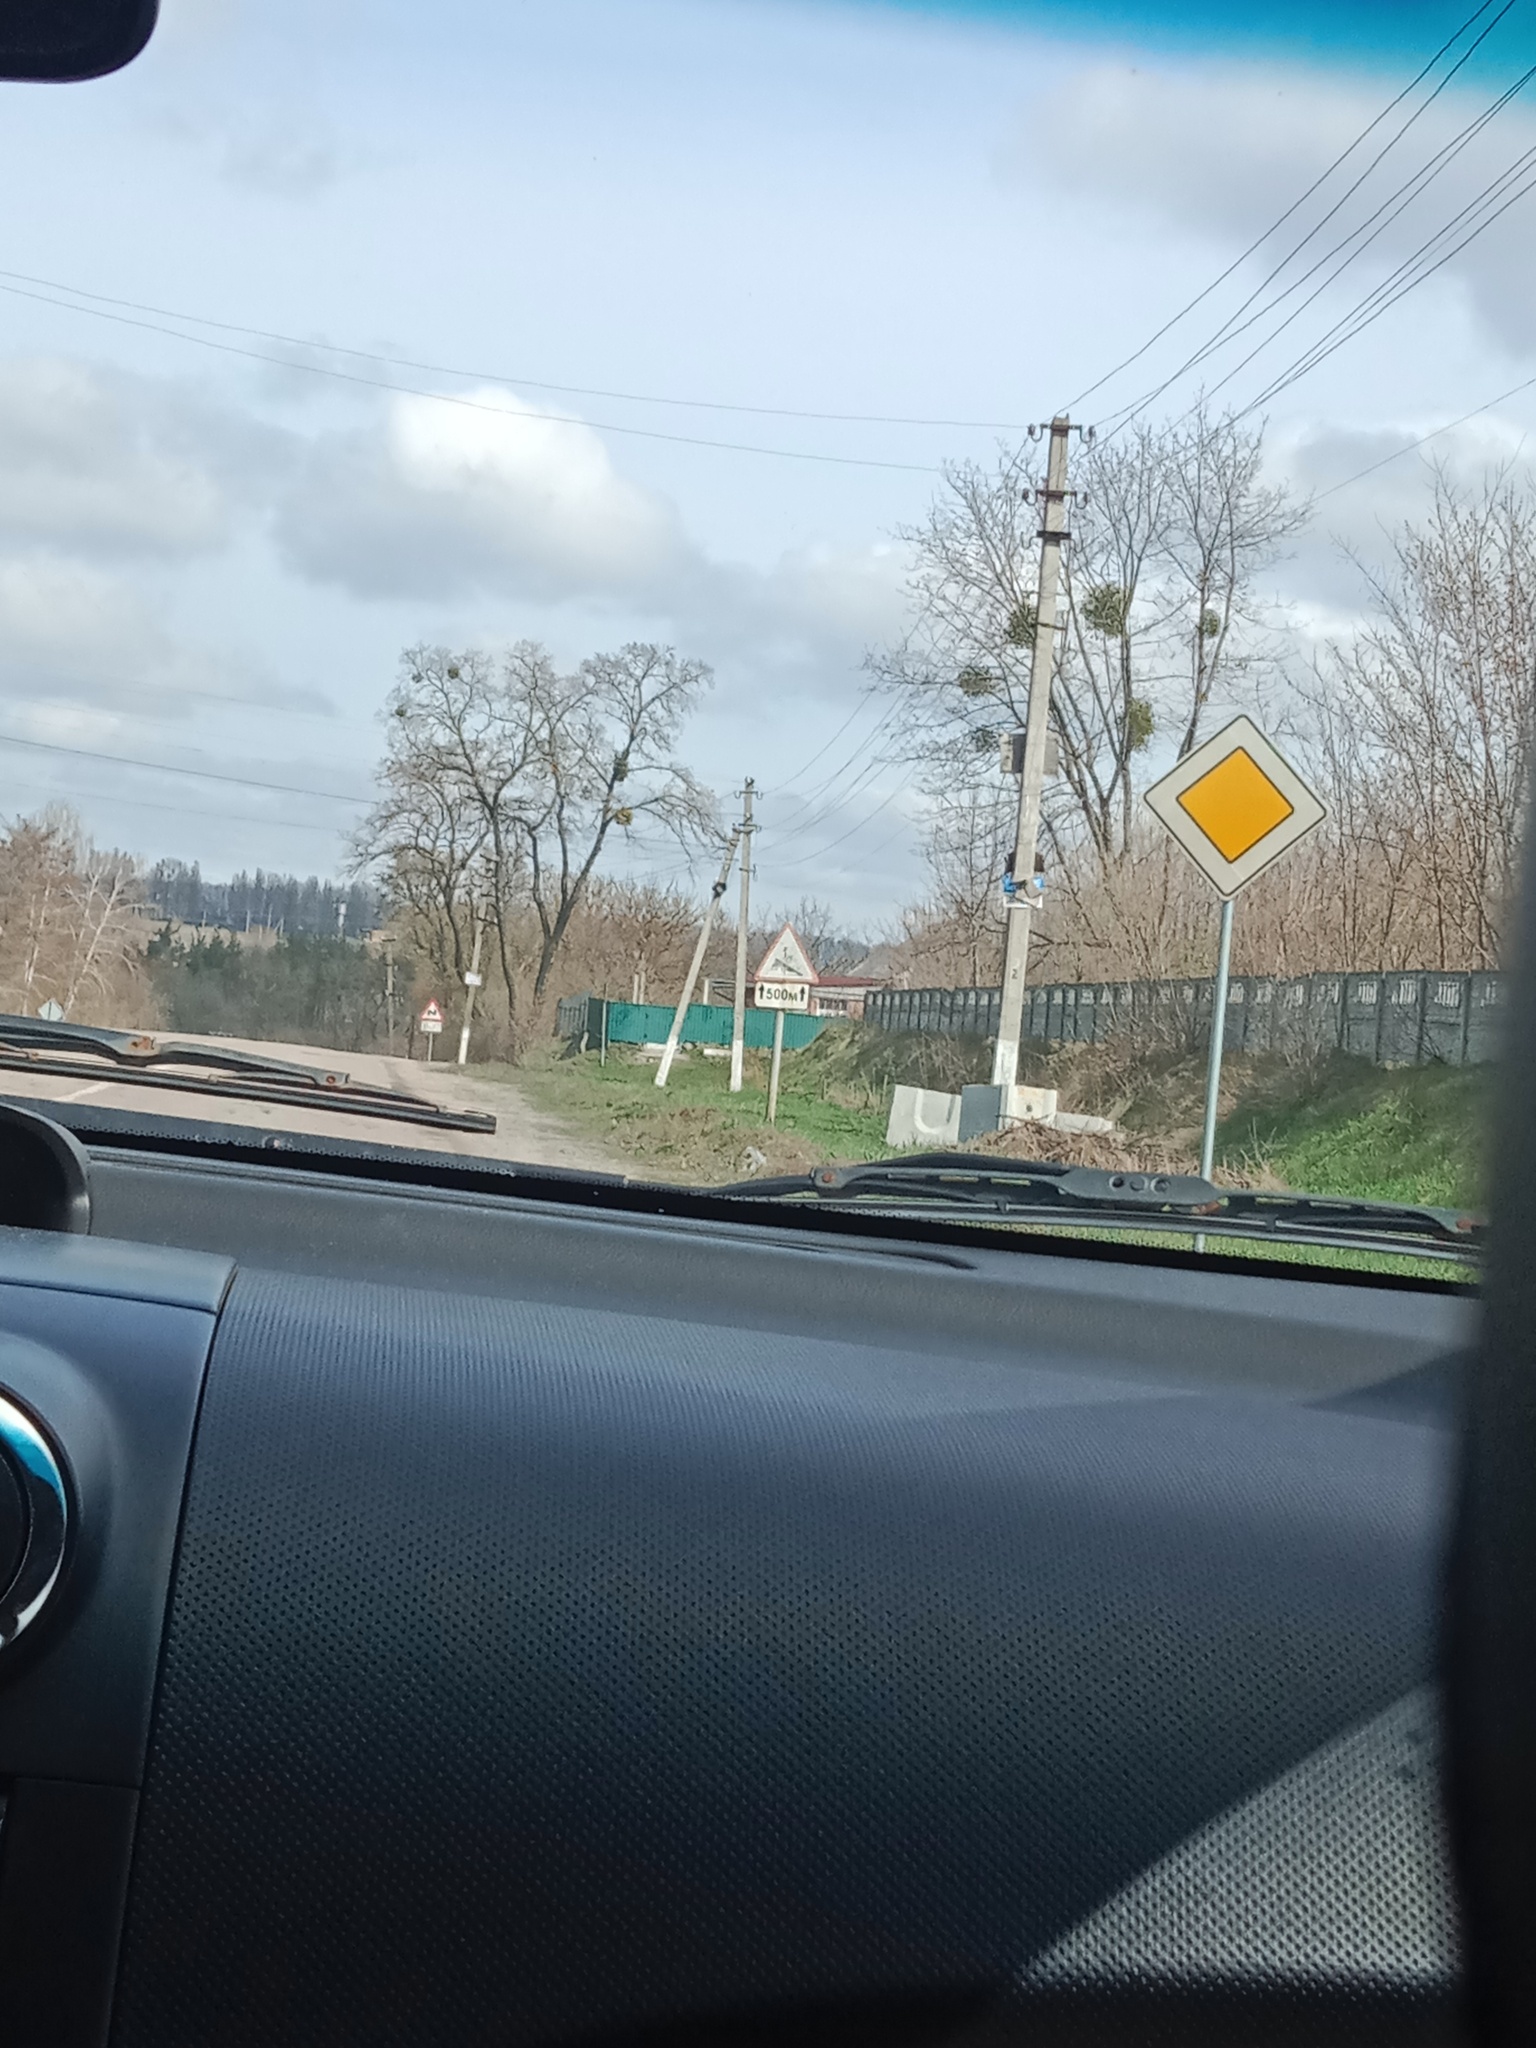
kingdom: Plantae
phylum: Tracheophyta
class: Magnoliopsida
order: Santalales
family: Viscaceae
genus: Viscum
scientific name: Viscum album
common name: Mistletoe
